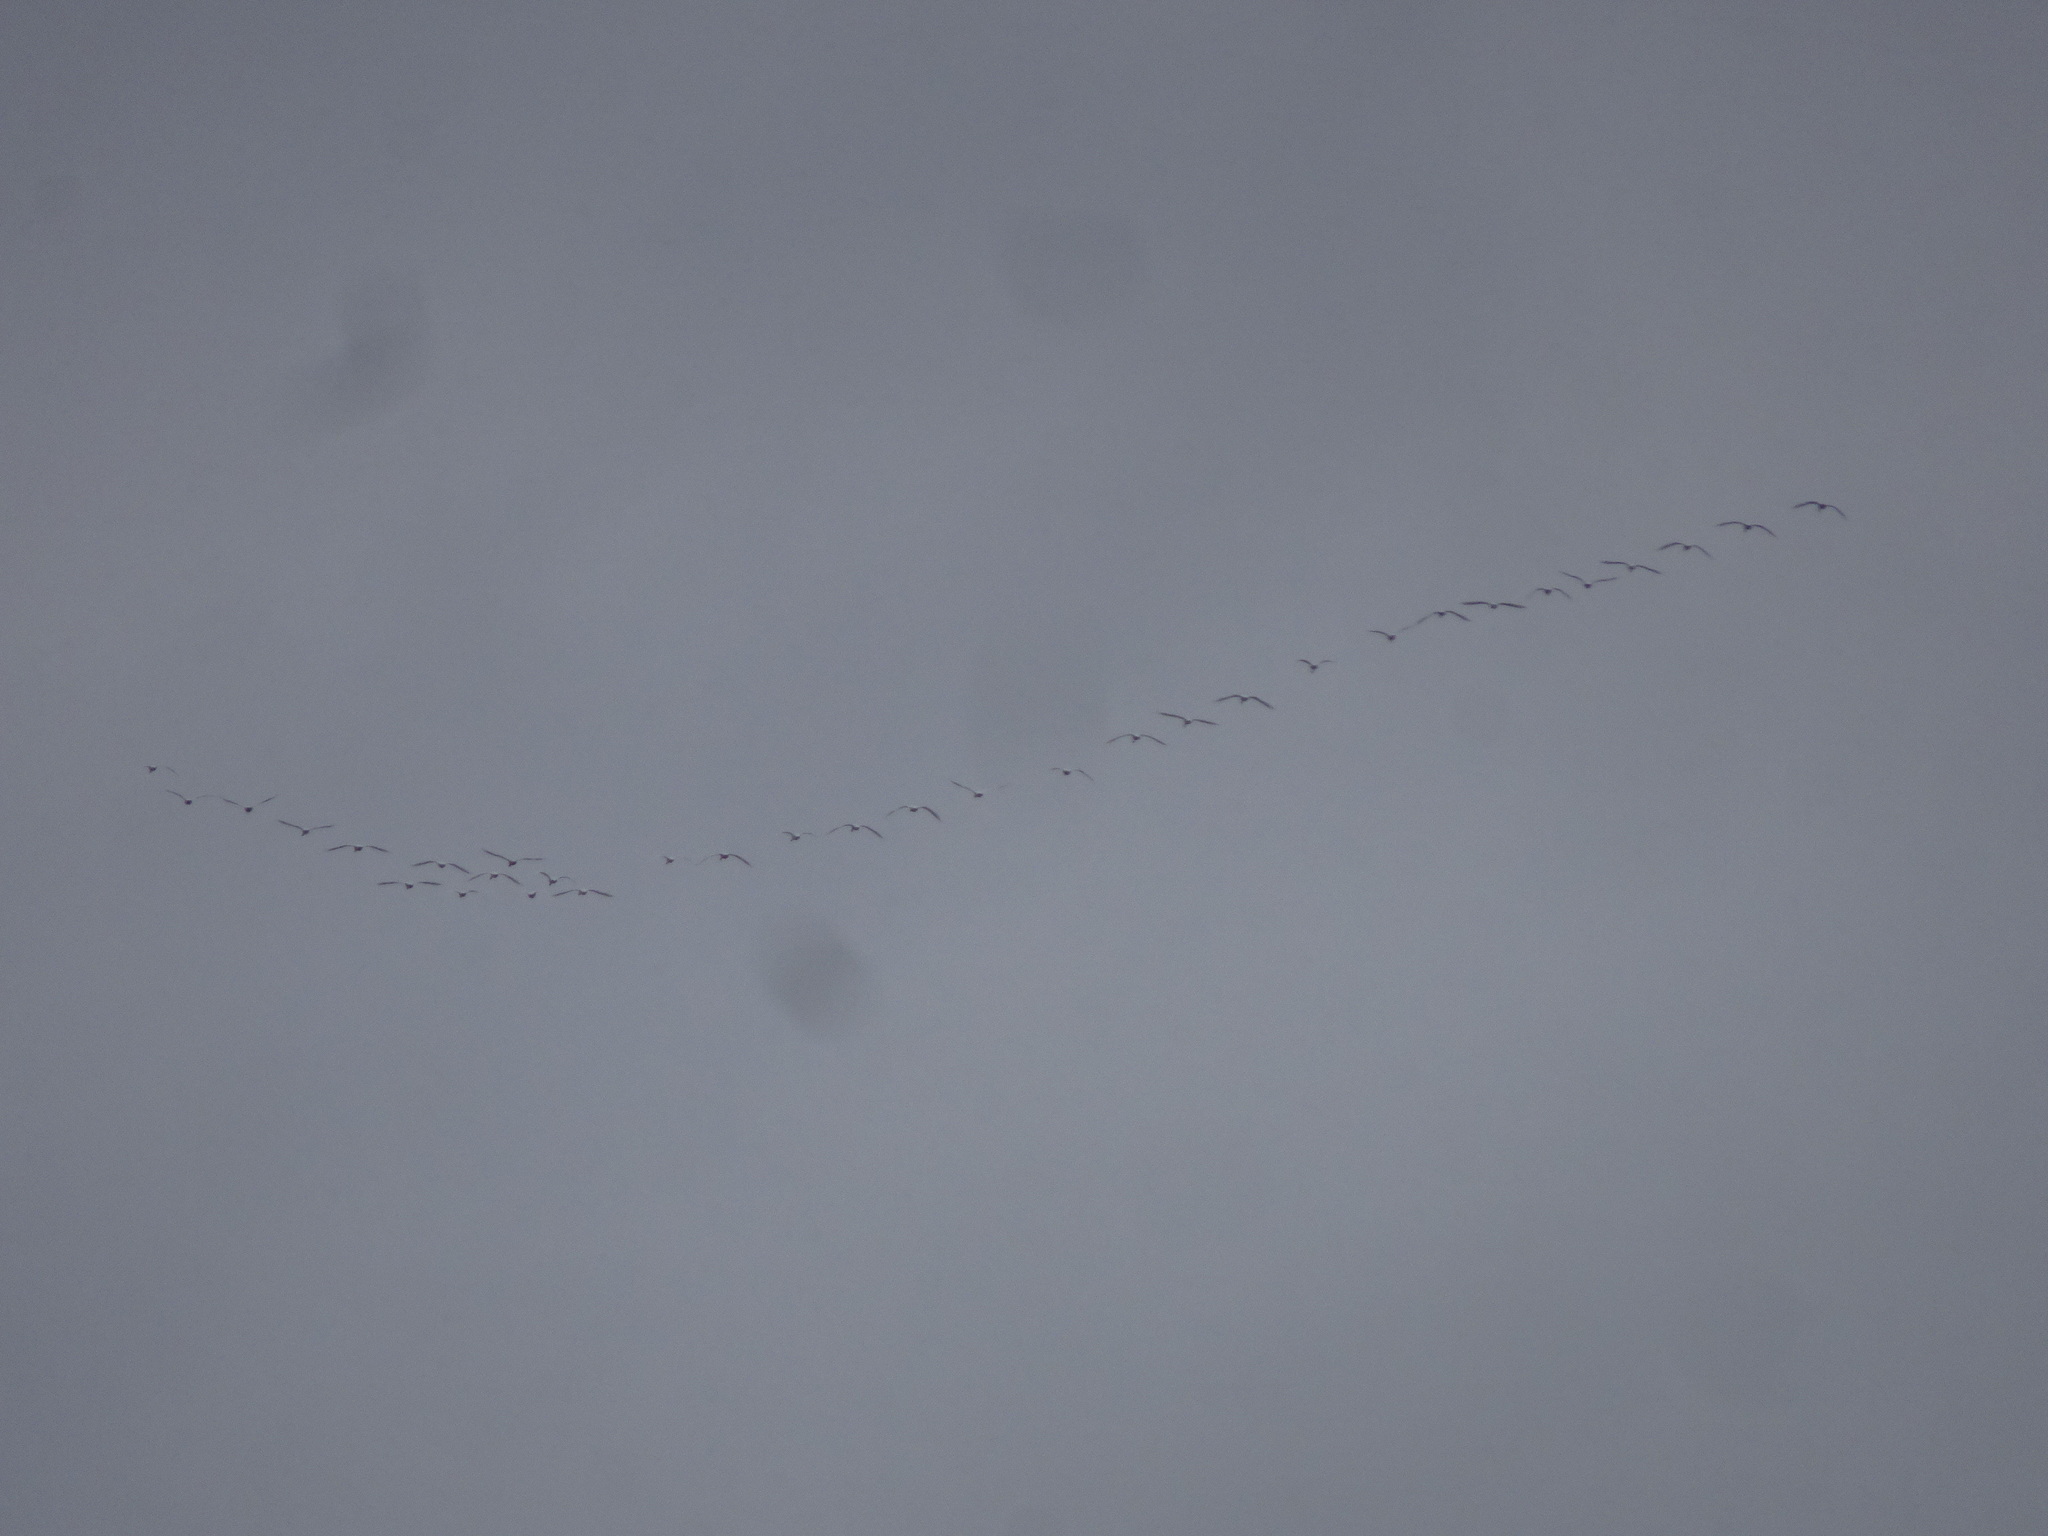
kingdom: Animalia
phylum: Chordata
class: Aves
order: Anseriformes
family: Anatidae
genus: Cygnus
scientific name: Cygnus columbianus
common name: Tundra swan
